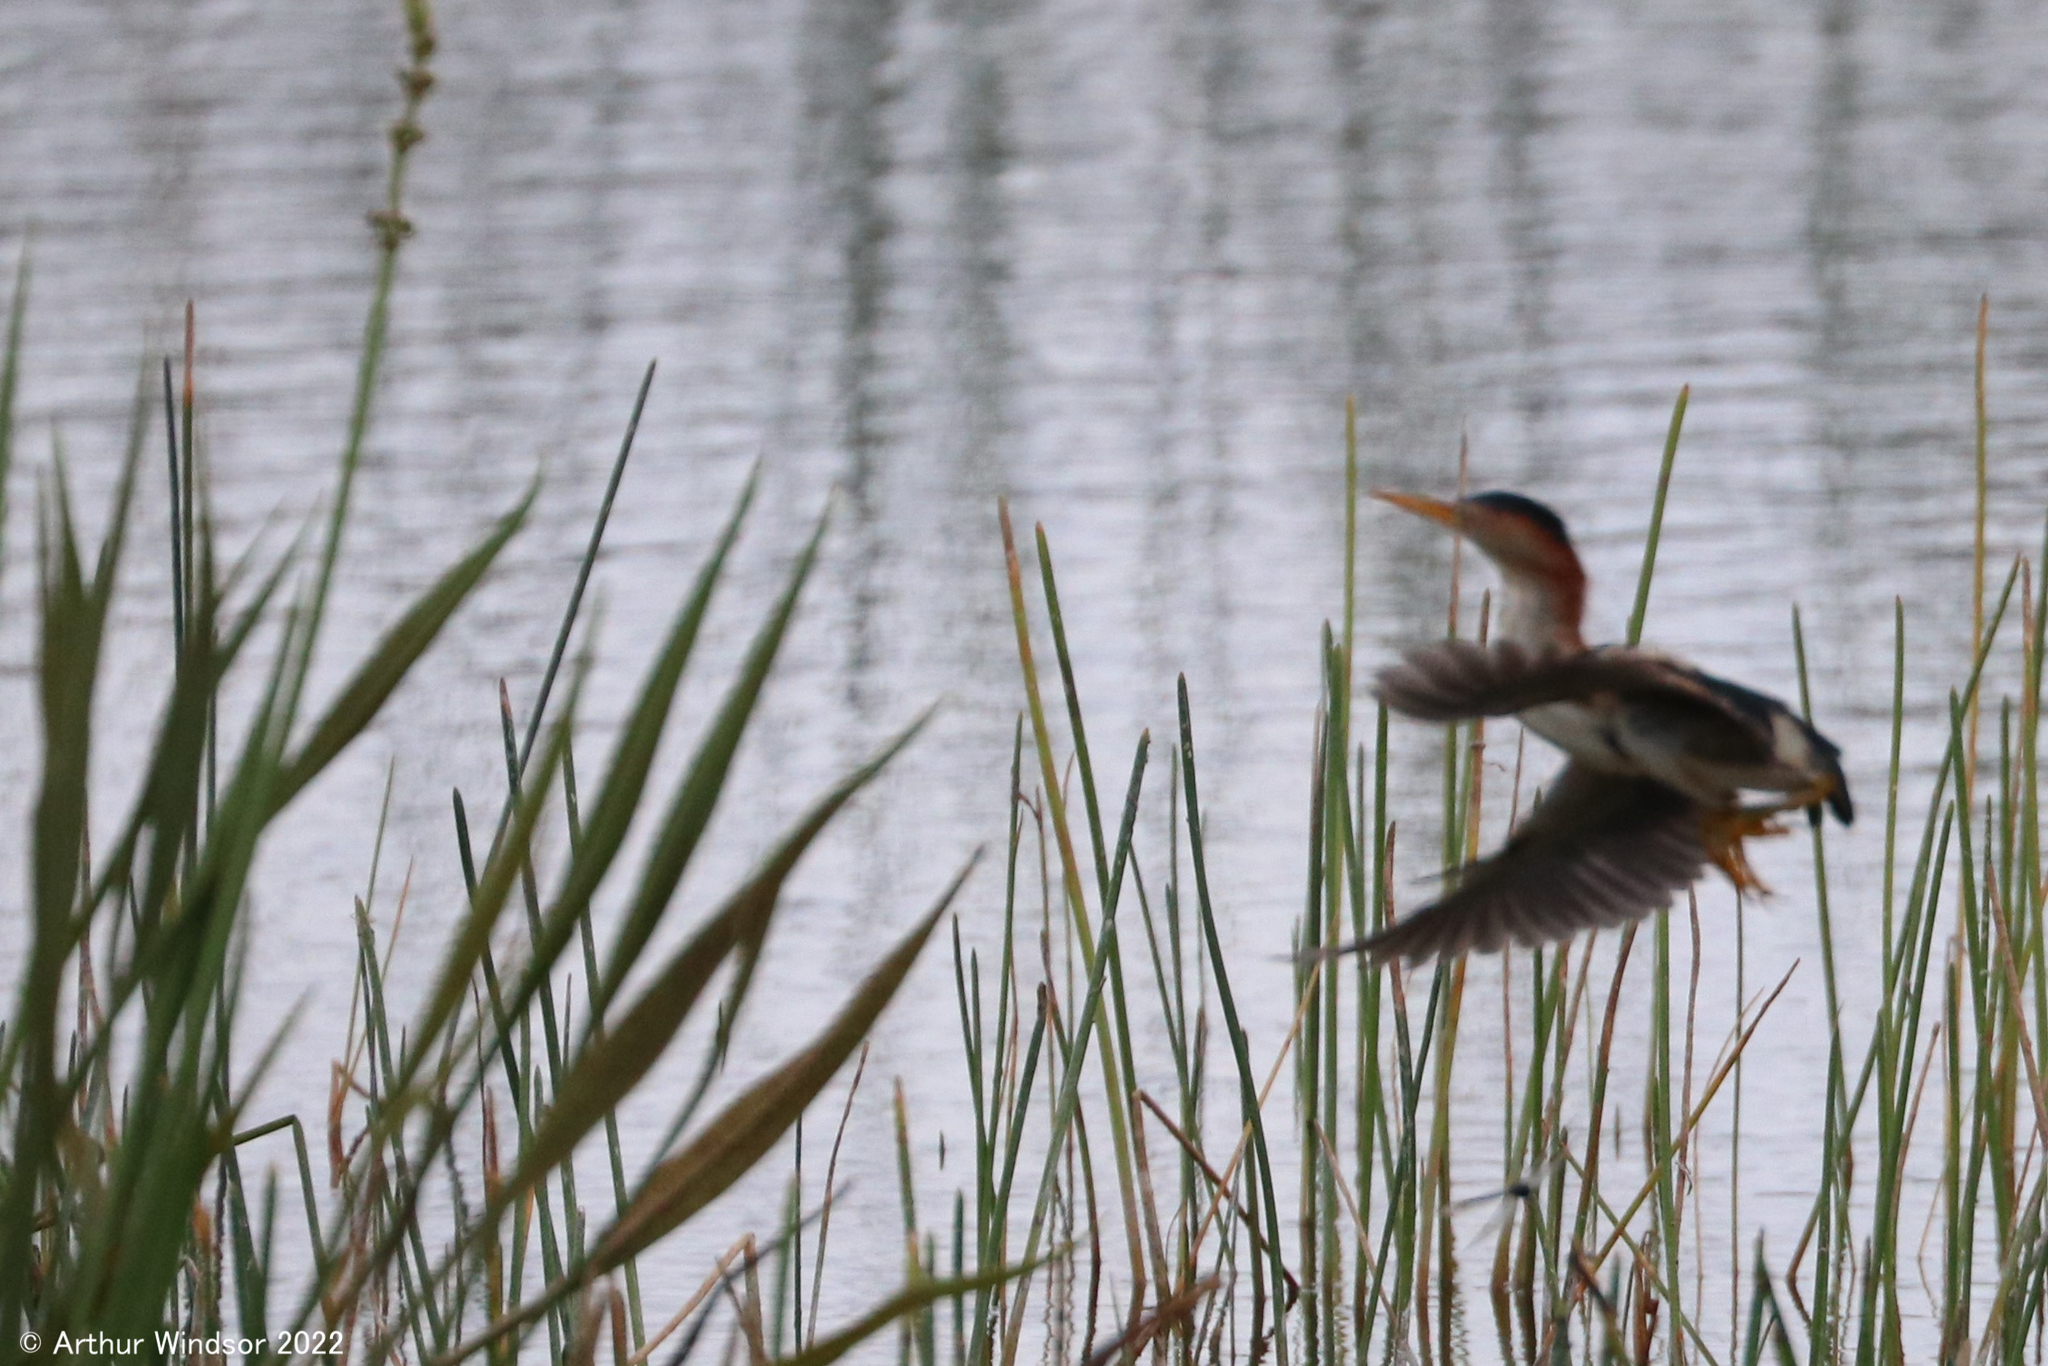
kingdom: Animalia
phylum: Chordata
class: Aves
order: Pelecaniformes
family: Ardeidae
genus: Ixobrychus
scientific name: Ixobrychus exilis
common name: Least bittern
